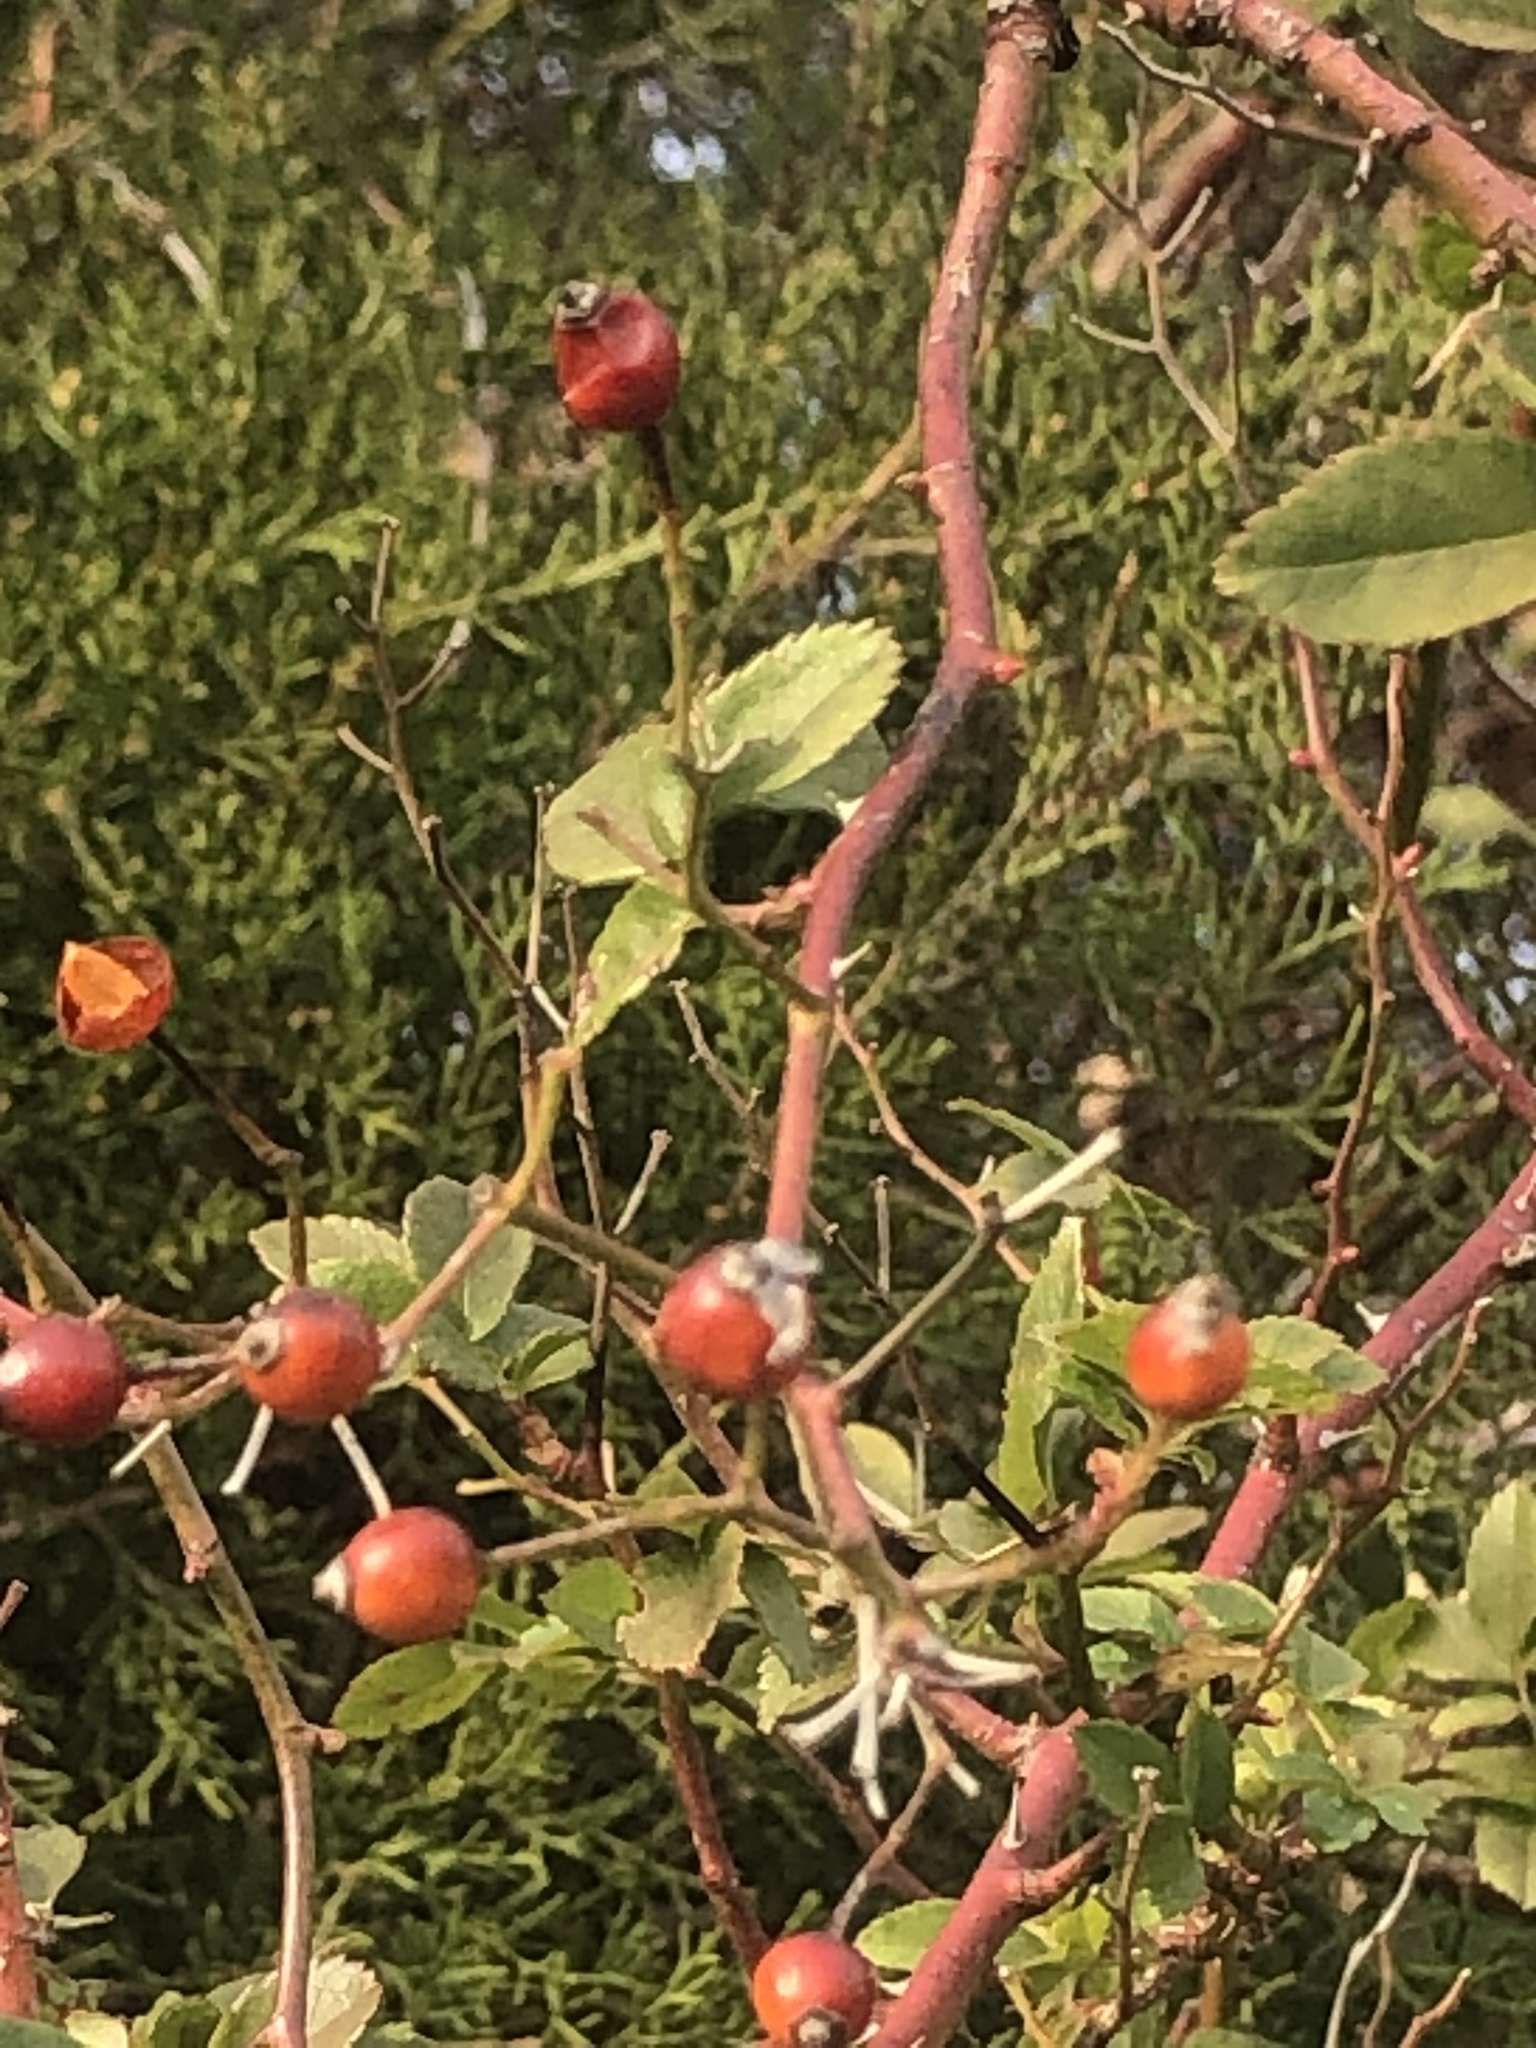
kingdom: Plantae
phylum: Tracheophyta
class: Magnoliopsida
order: Rosales
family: Rosaceae
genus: Rosa
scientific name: Rosa multiflora
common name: Multiflora rose
